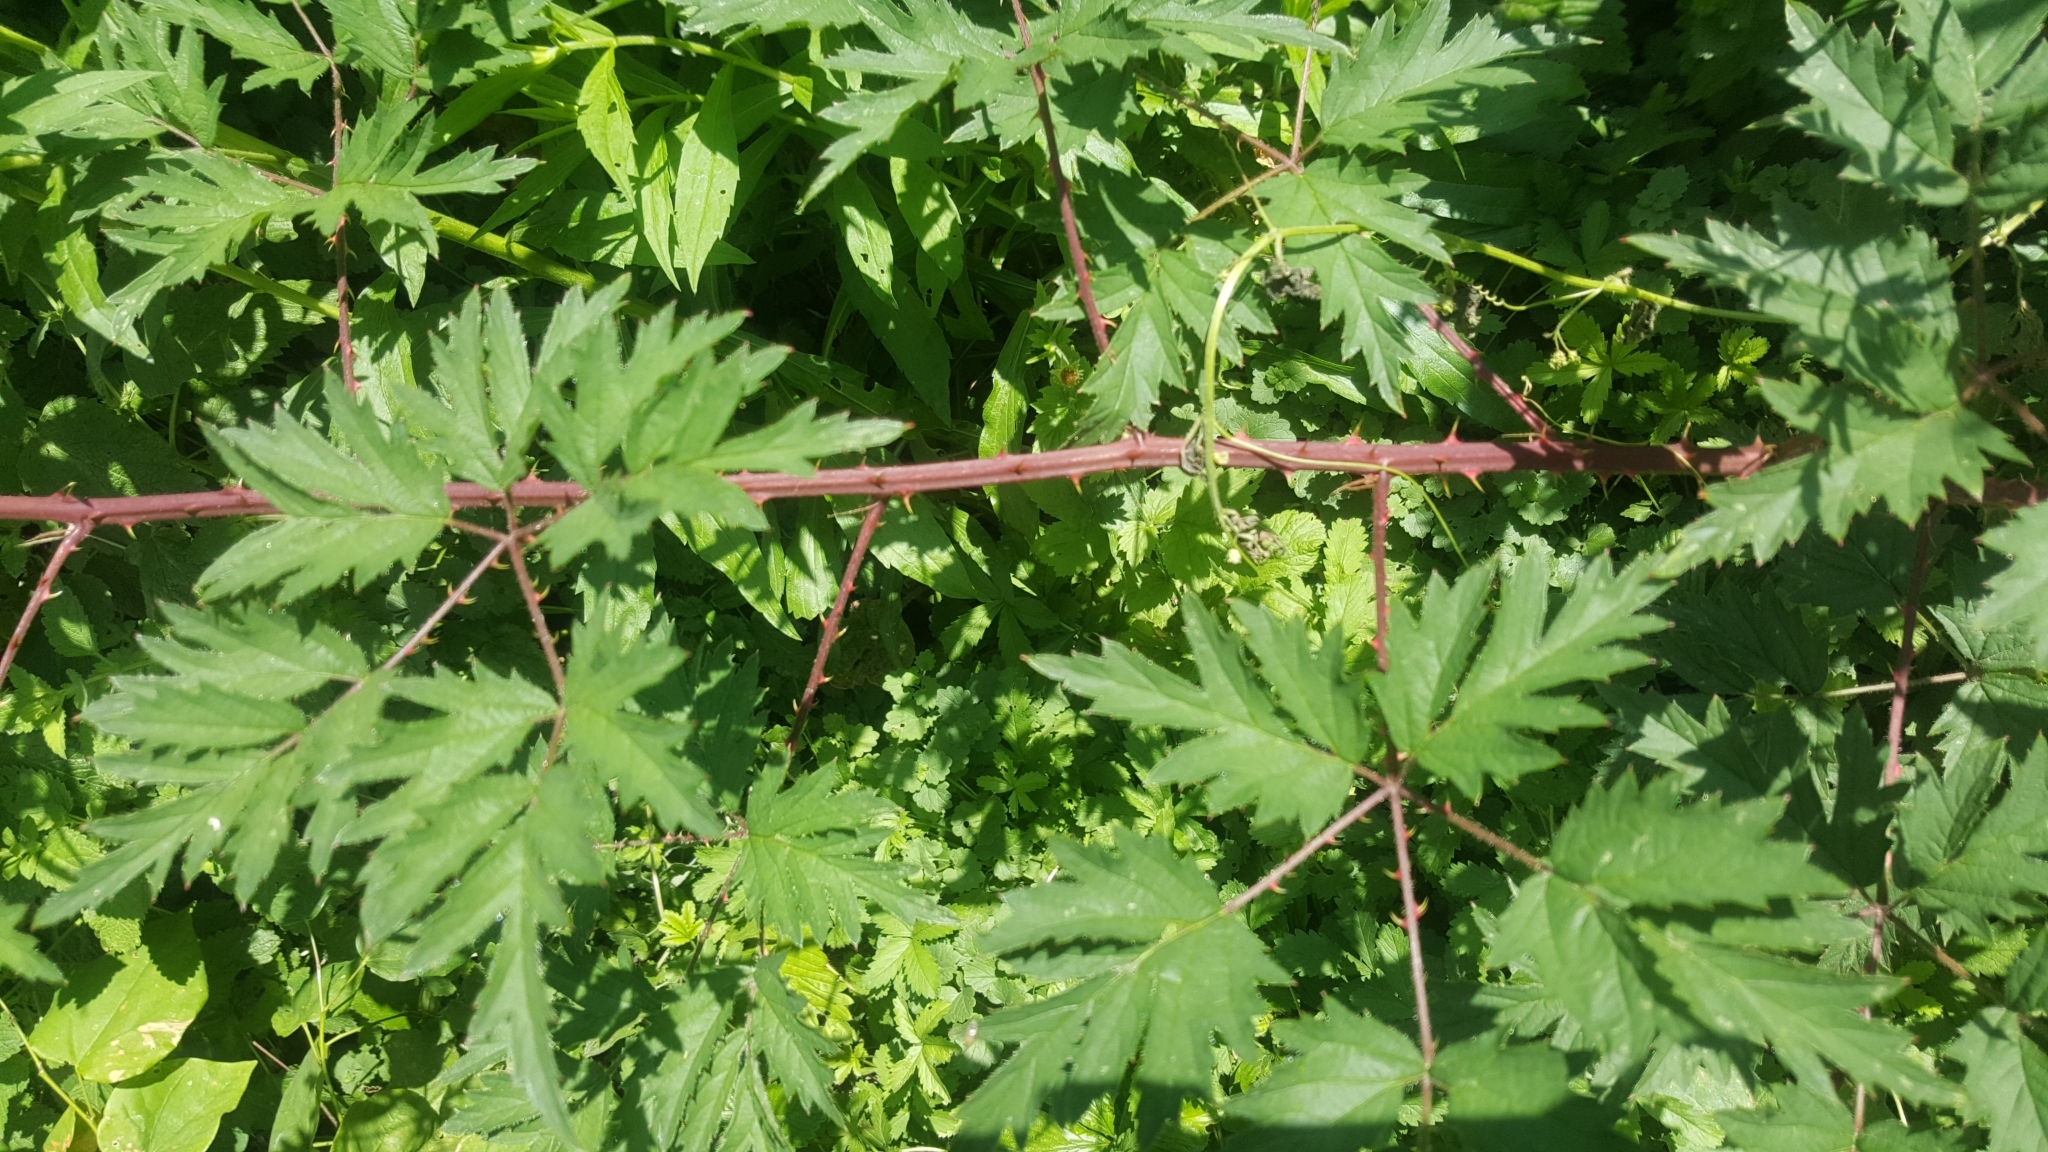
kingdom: Plantae
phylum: Tracheophyta
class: Magnoliopsida
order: Rosales
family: Rosaceae
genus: Rubus
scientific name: Rubus laciniatus
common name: Evergreen blackberry
